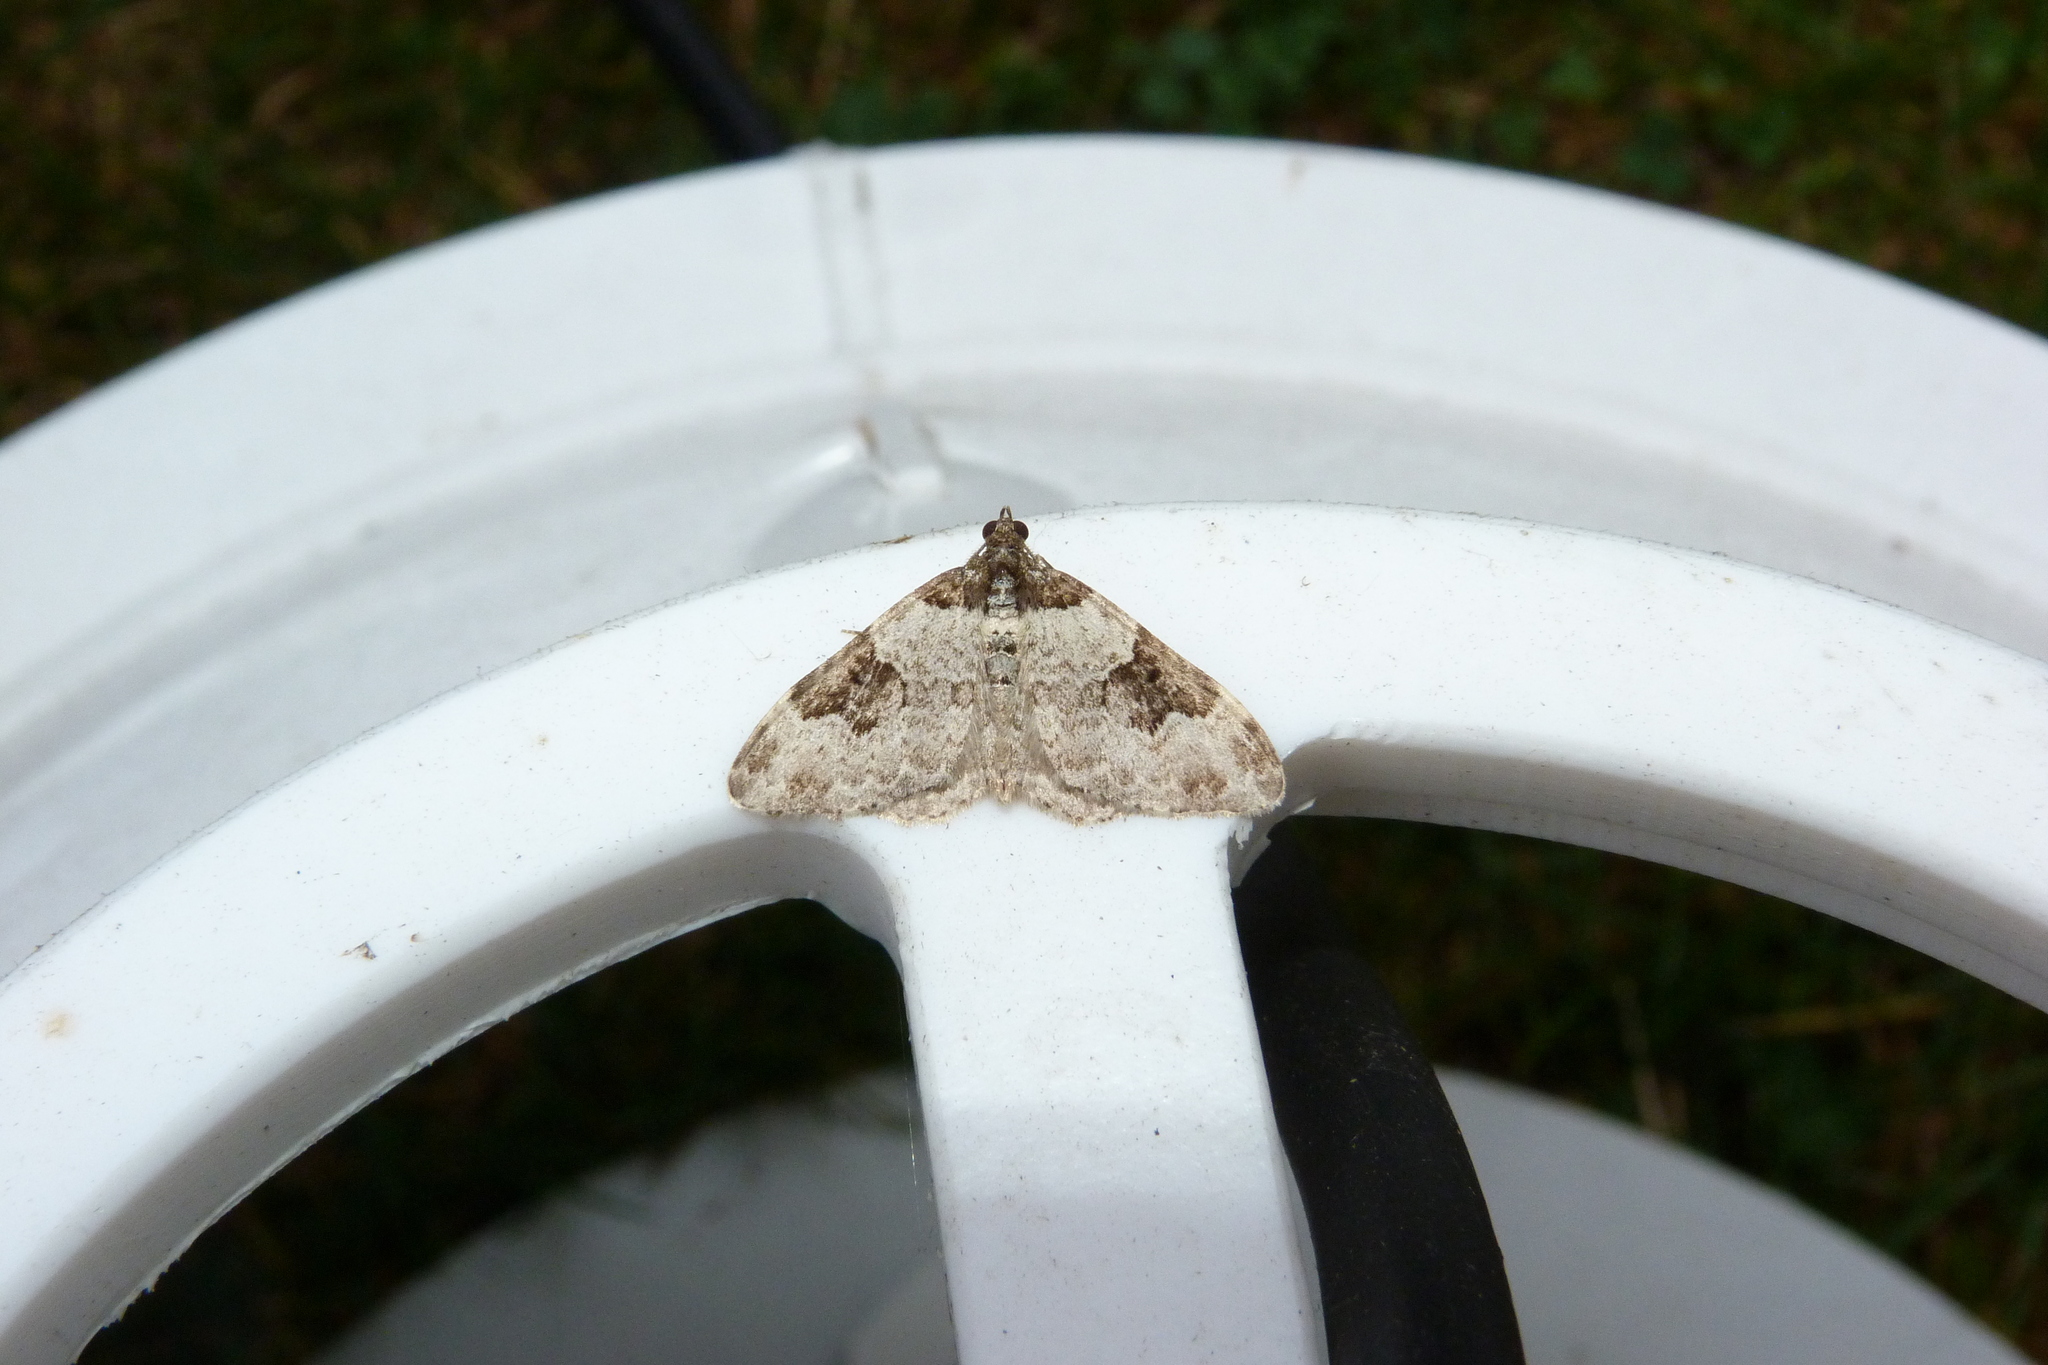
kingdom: Animalia
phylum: Arthropoda
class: Insecta
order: Lepidoptera
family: Geometridae
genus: Xanthorhoe
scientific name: Xanthorhoe fluctuata
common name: Garden carpet
